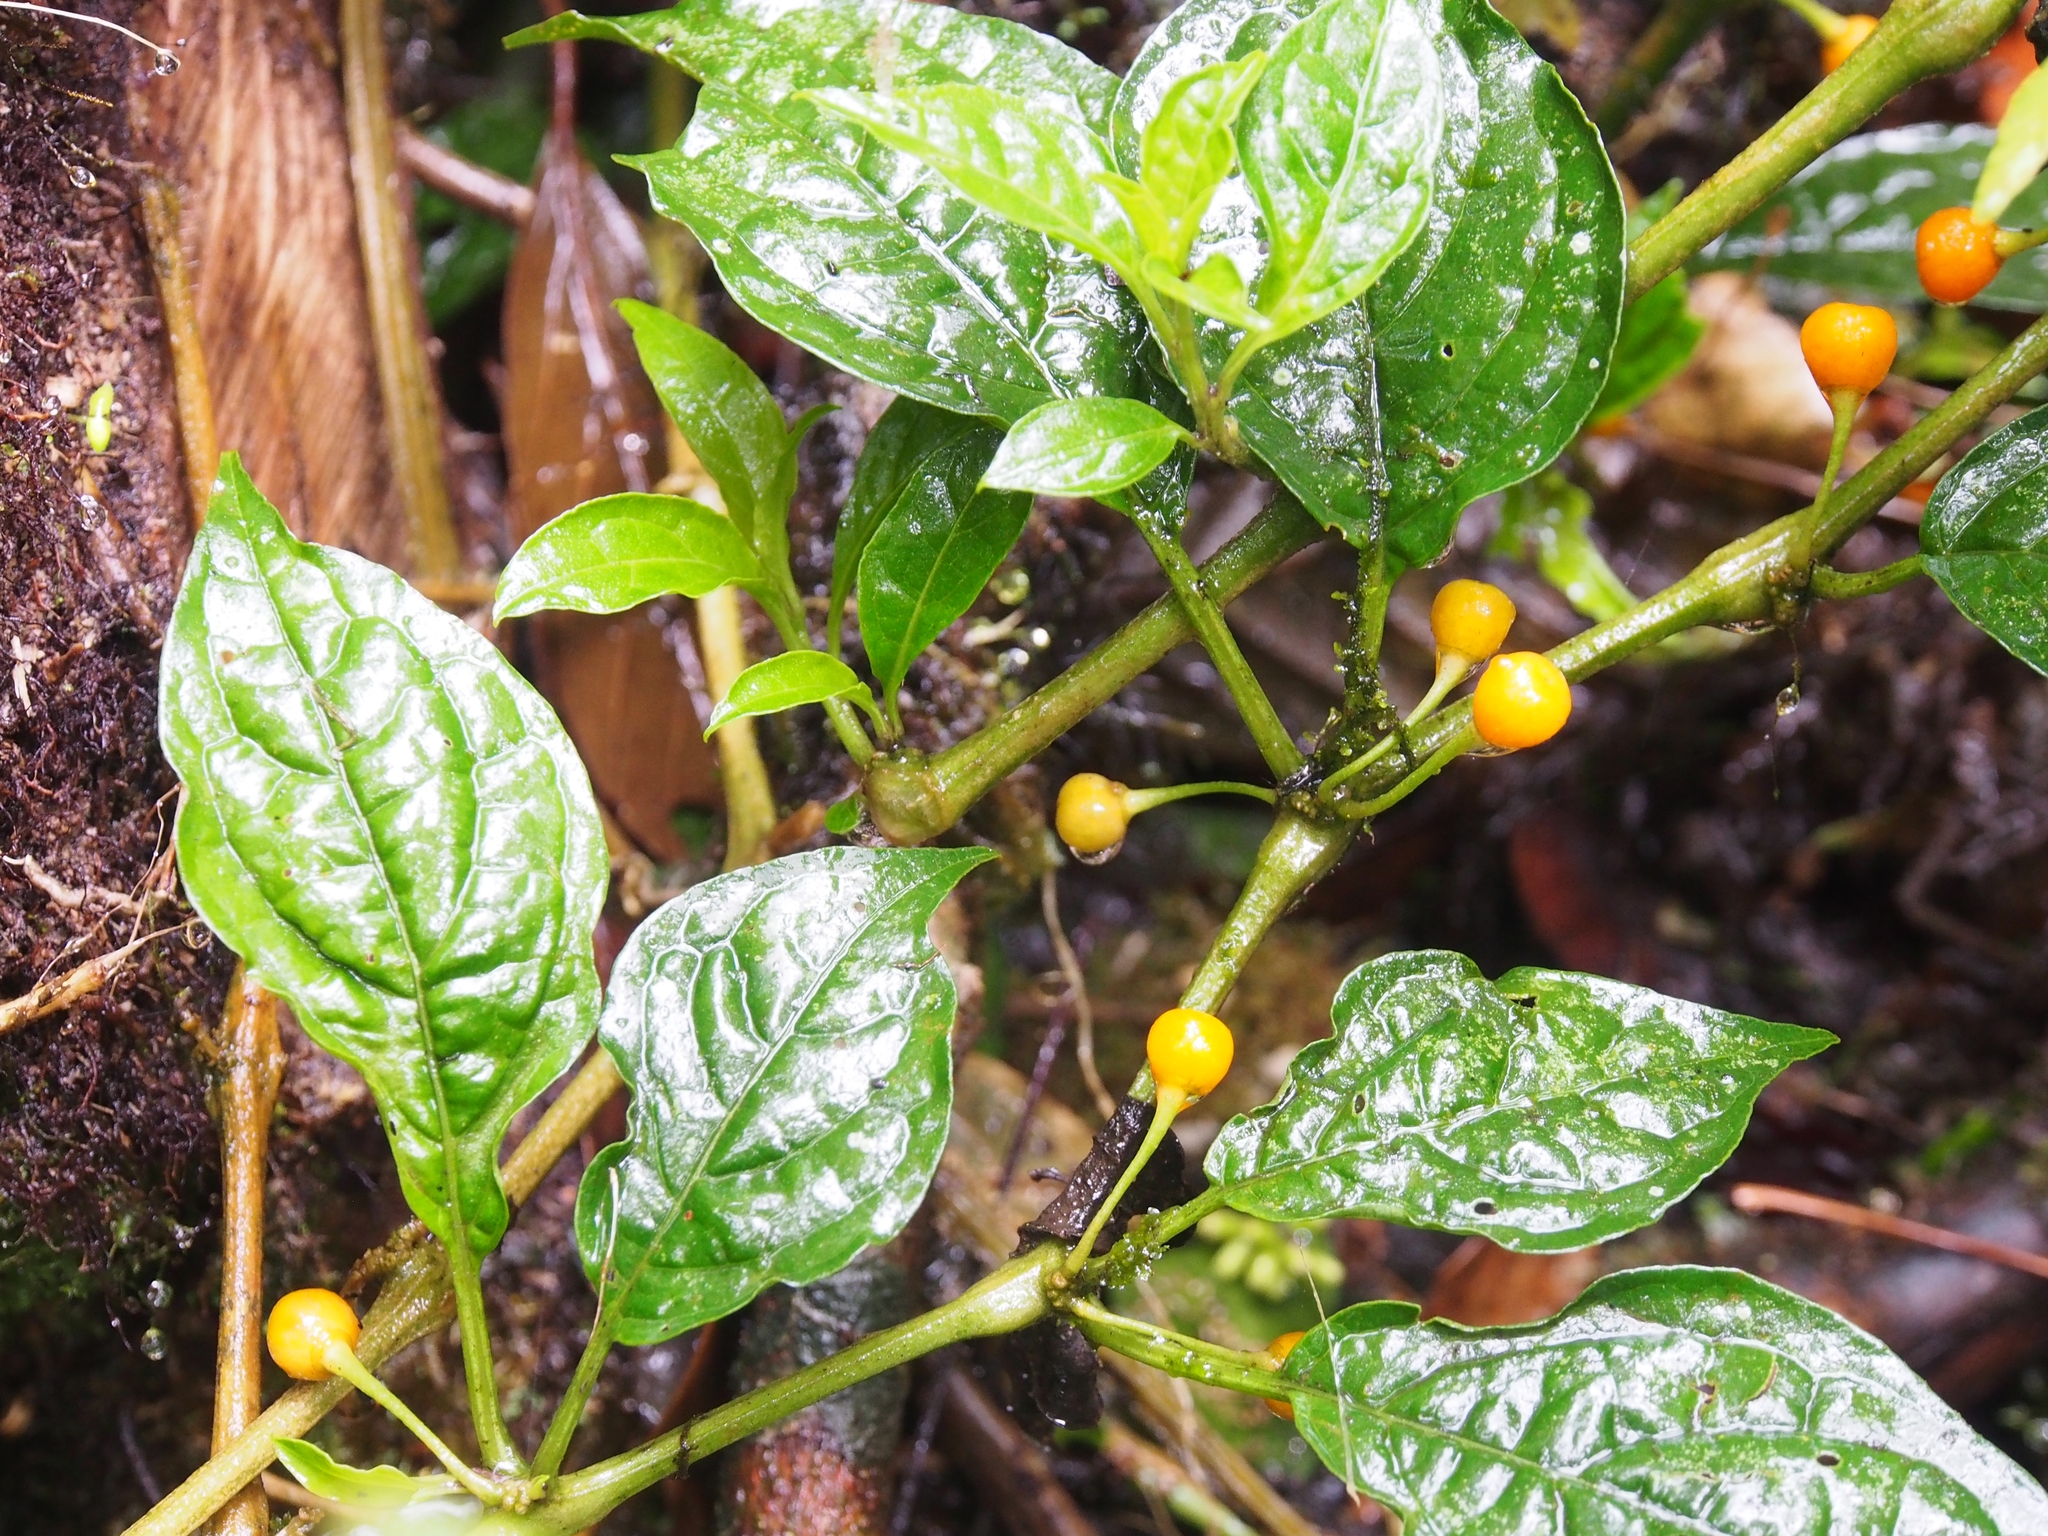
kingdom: Plantae
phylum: Tracheophyta
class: Magnoliopsida
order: Solanales
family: Solanaceae
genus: Witheringia
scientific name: Witheringia meiantha
